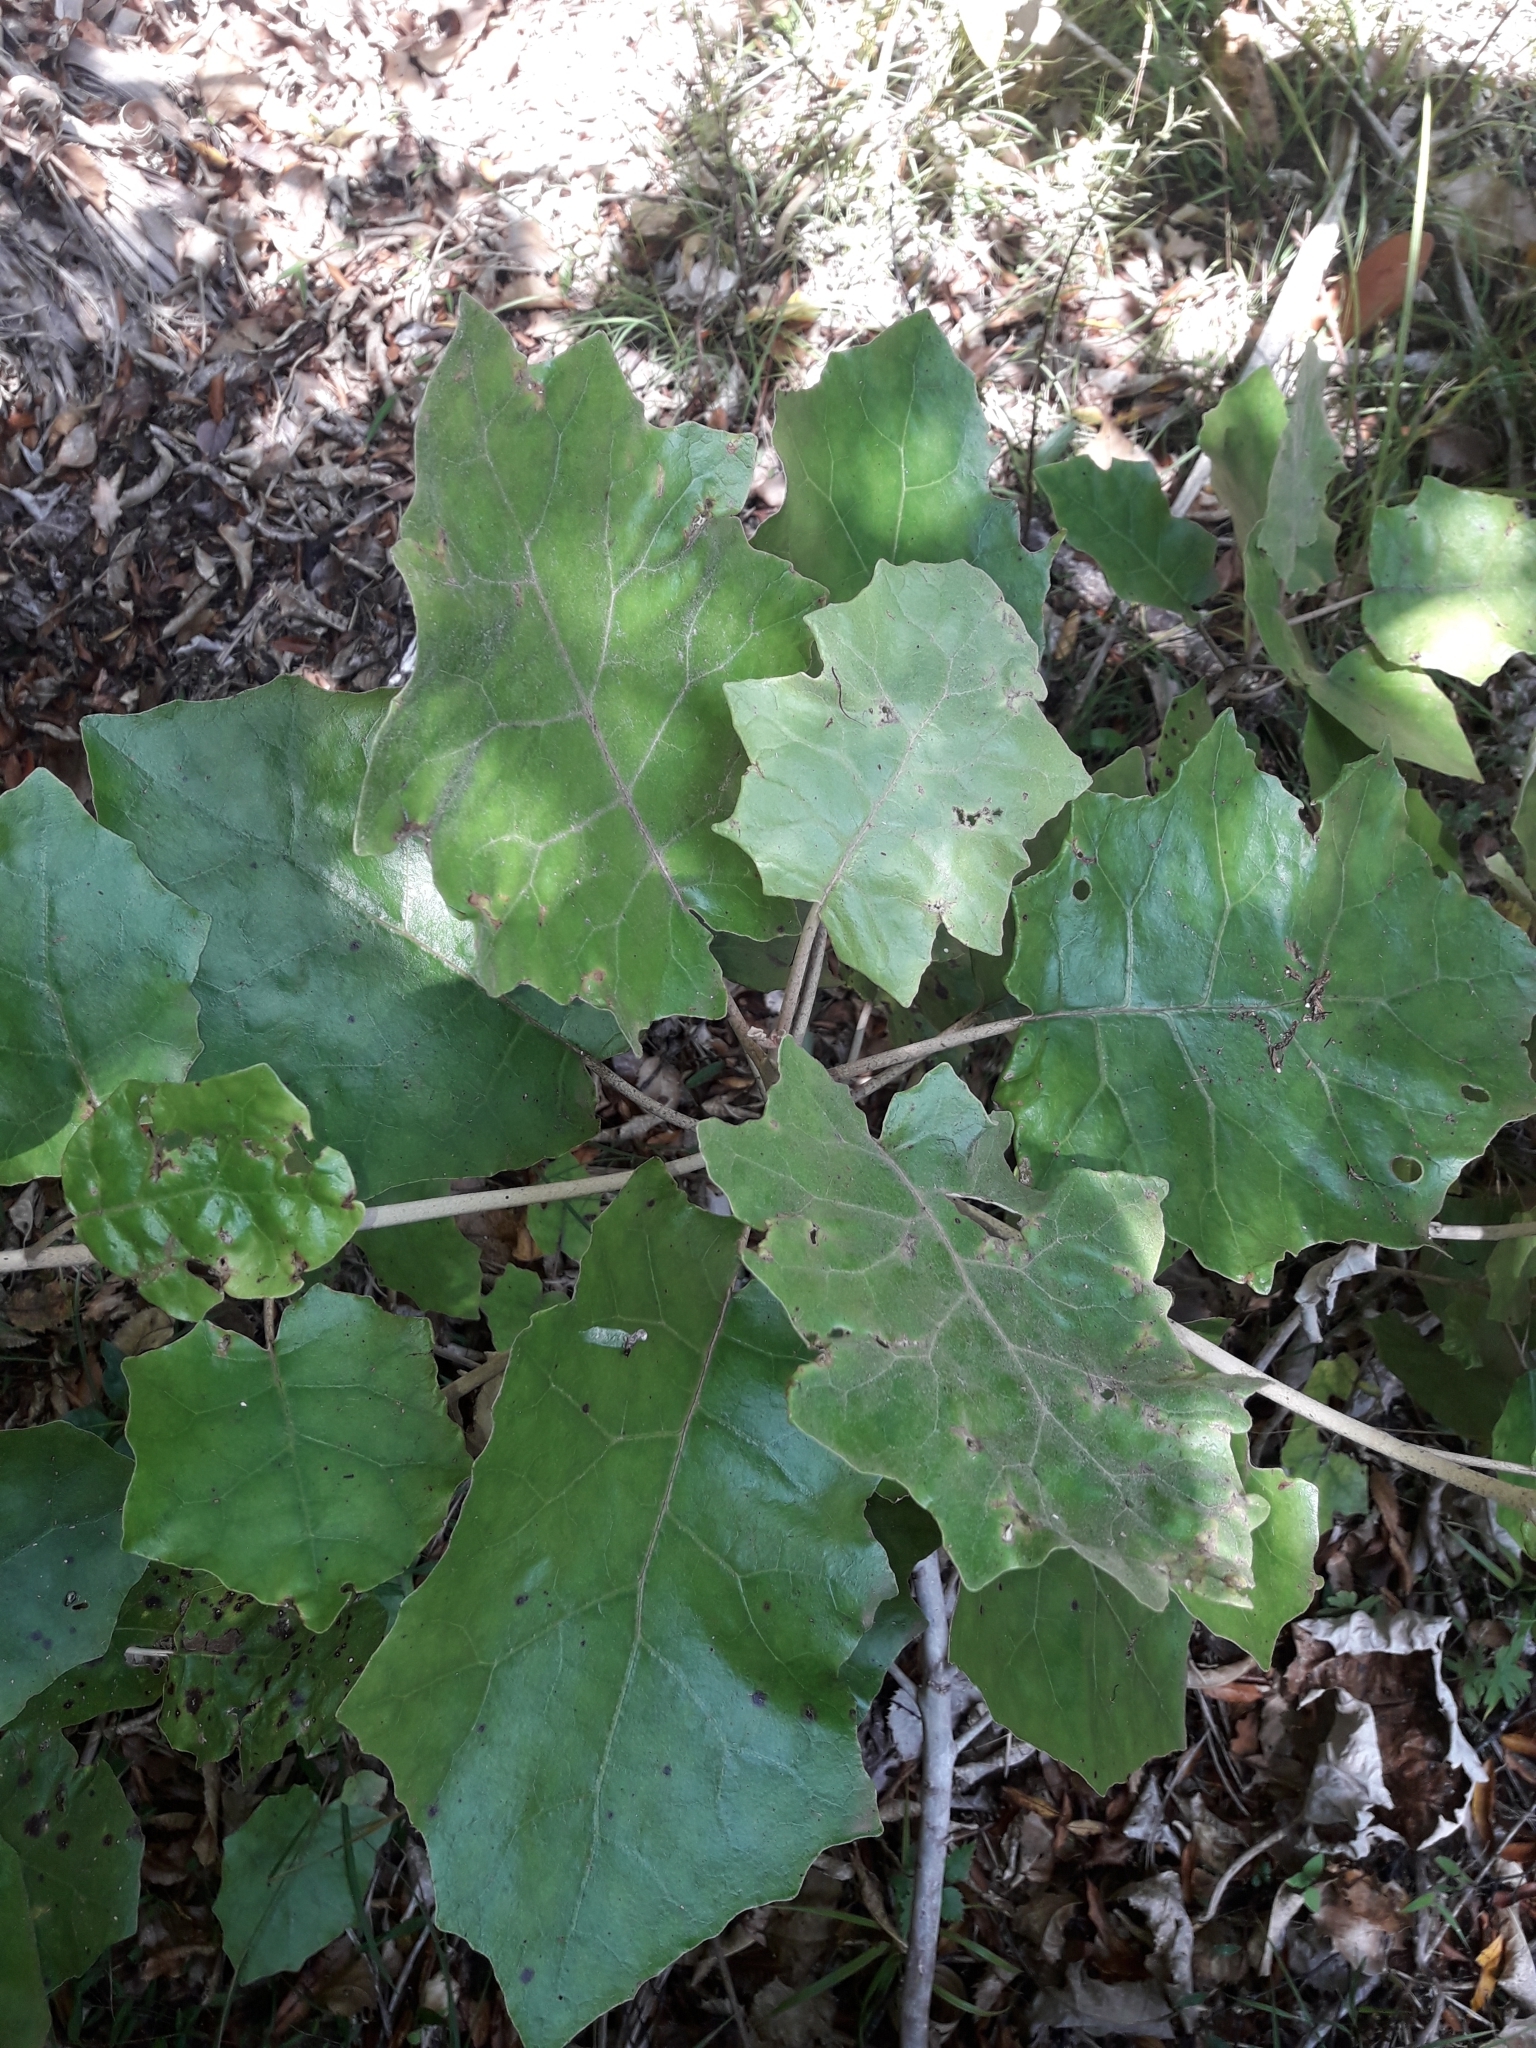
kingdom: Plantae
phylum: Tracheophyta
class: Magnoliopsida
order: Asterales
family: Asteraceae
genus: Brachyglottis
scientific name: Brachyglottis repanda
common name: Hedge ragwort
